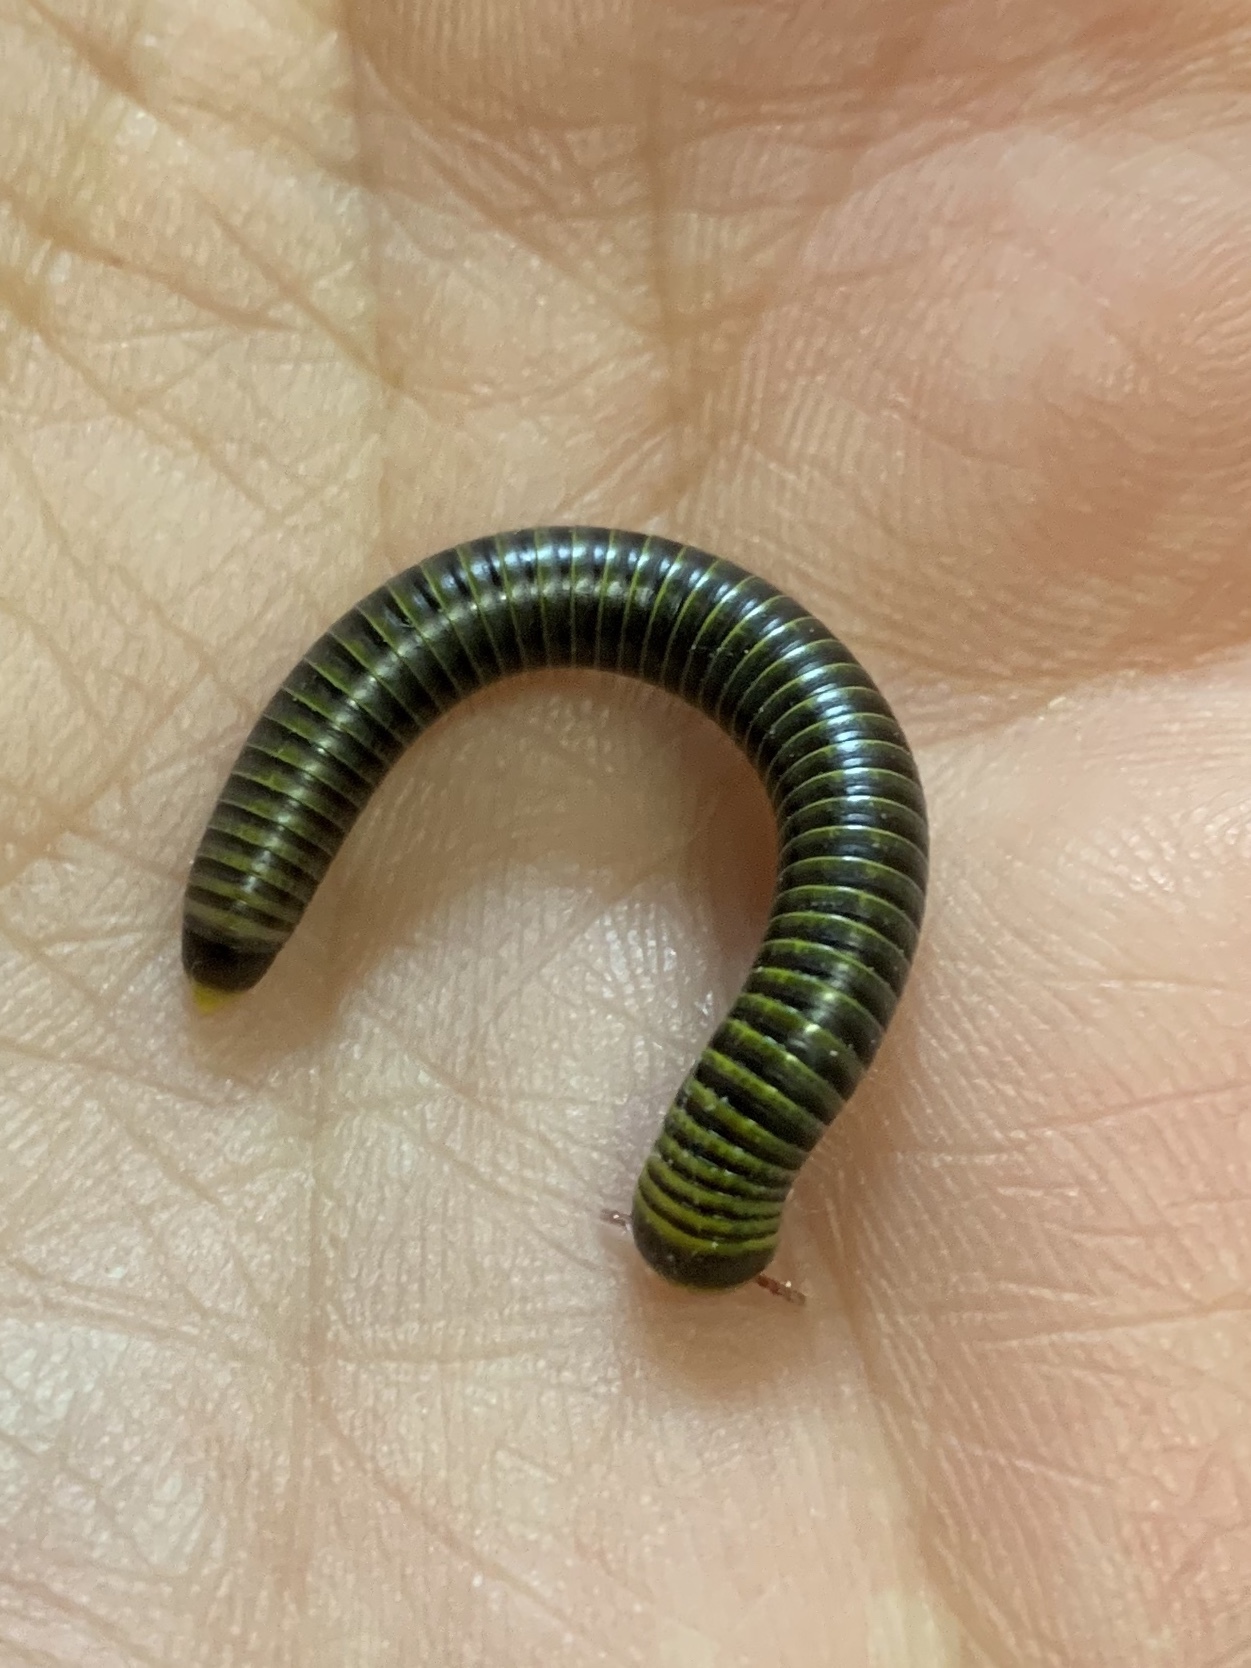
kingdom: Animalia
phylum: Arthropoda
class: Diplopoda
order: Spirobolida
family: Rhinocricidae
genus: Anadenobolus
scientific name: Anadenobolus monilicornis
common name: Caribbean millipede
